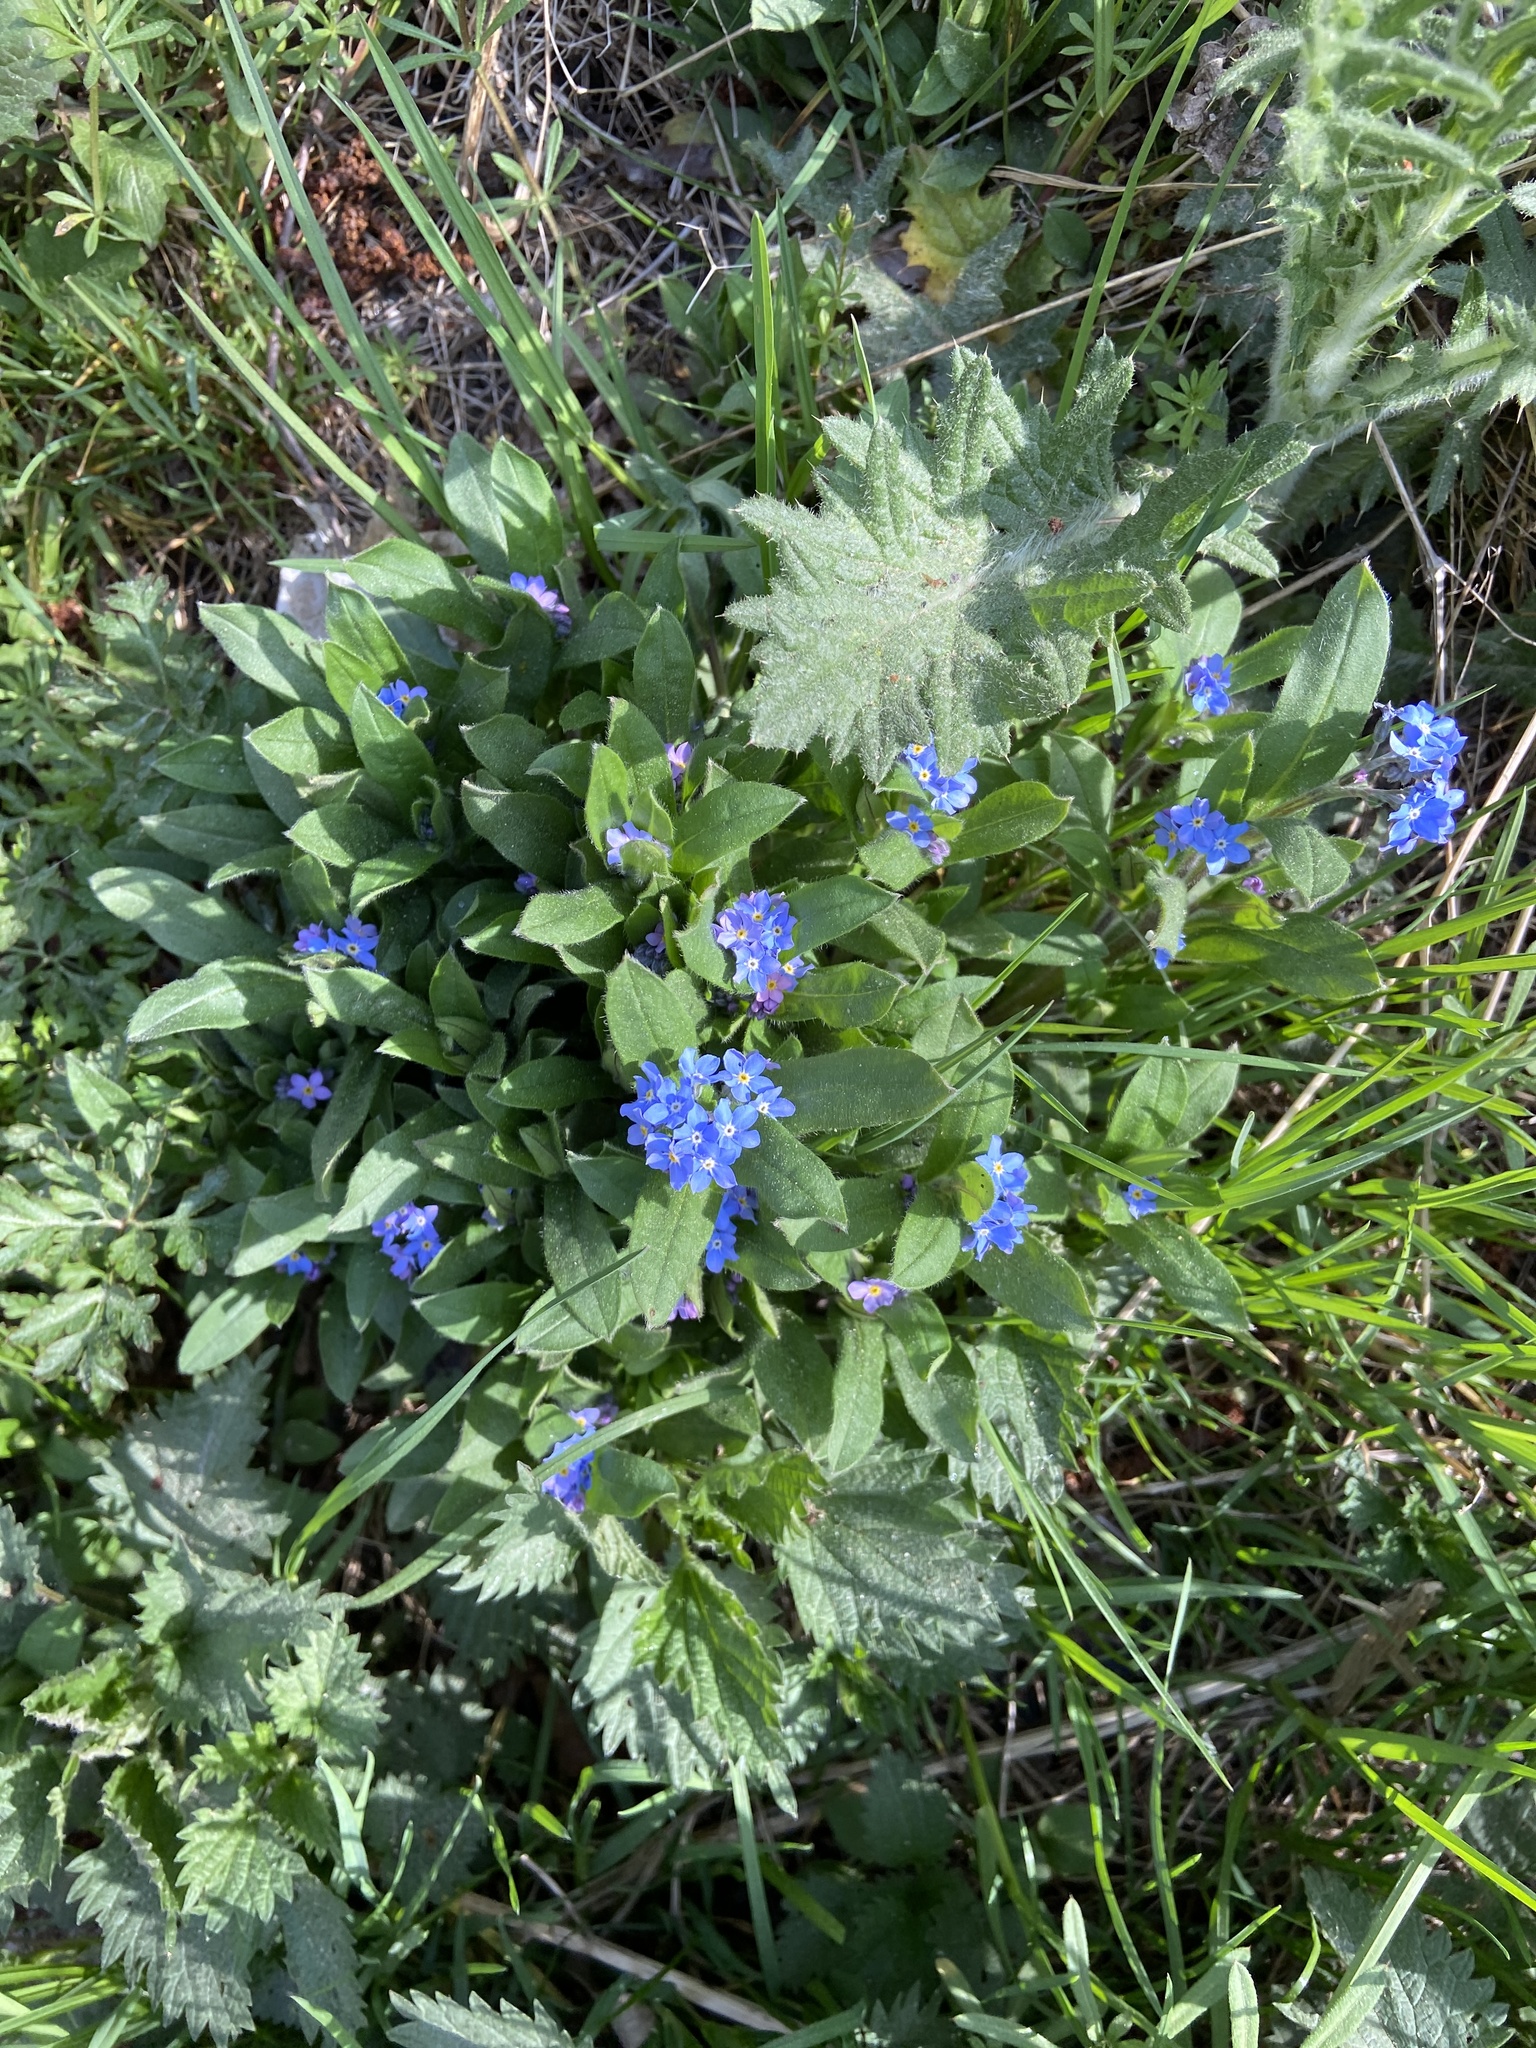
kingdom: Plantae
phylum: Tracheophyta
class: Magnoliopsida
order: Boraginales
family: Boraginaceae
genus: Myosotis
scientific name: Myosotis sylvatica
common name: Wood forget-me-not
